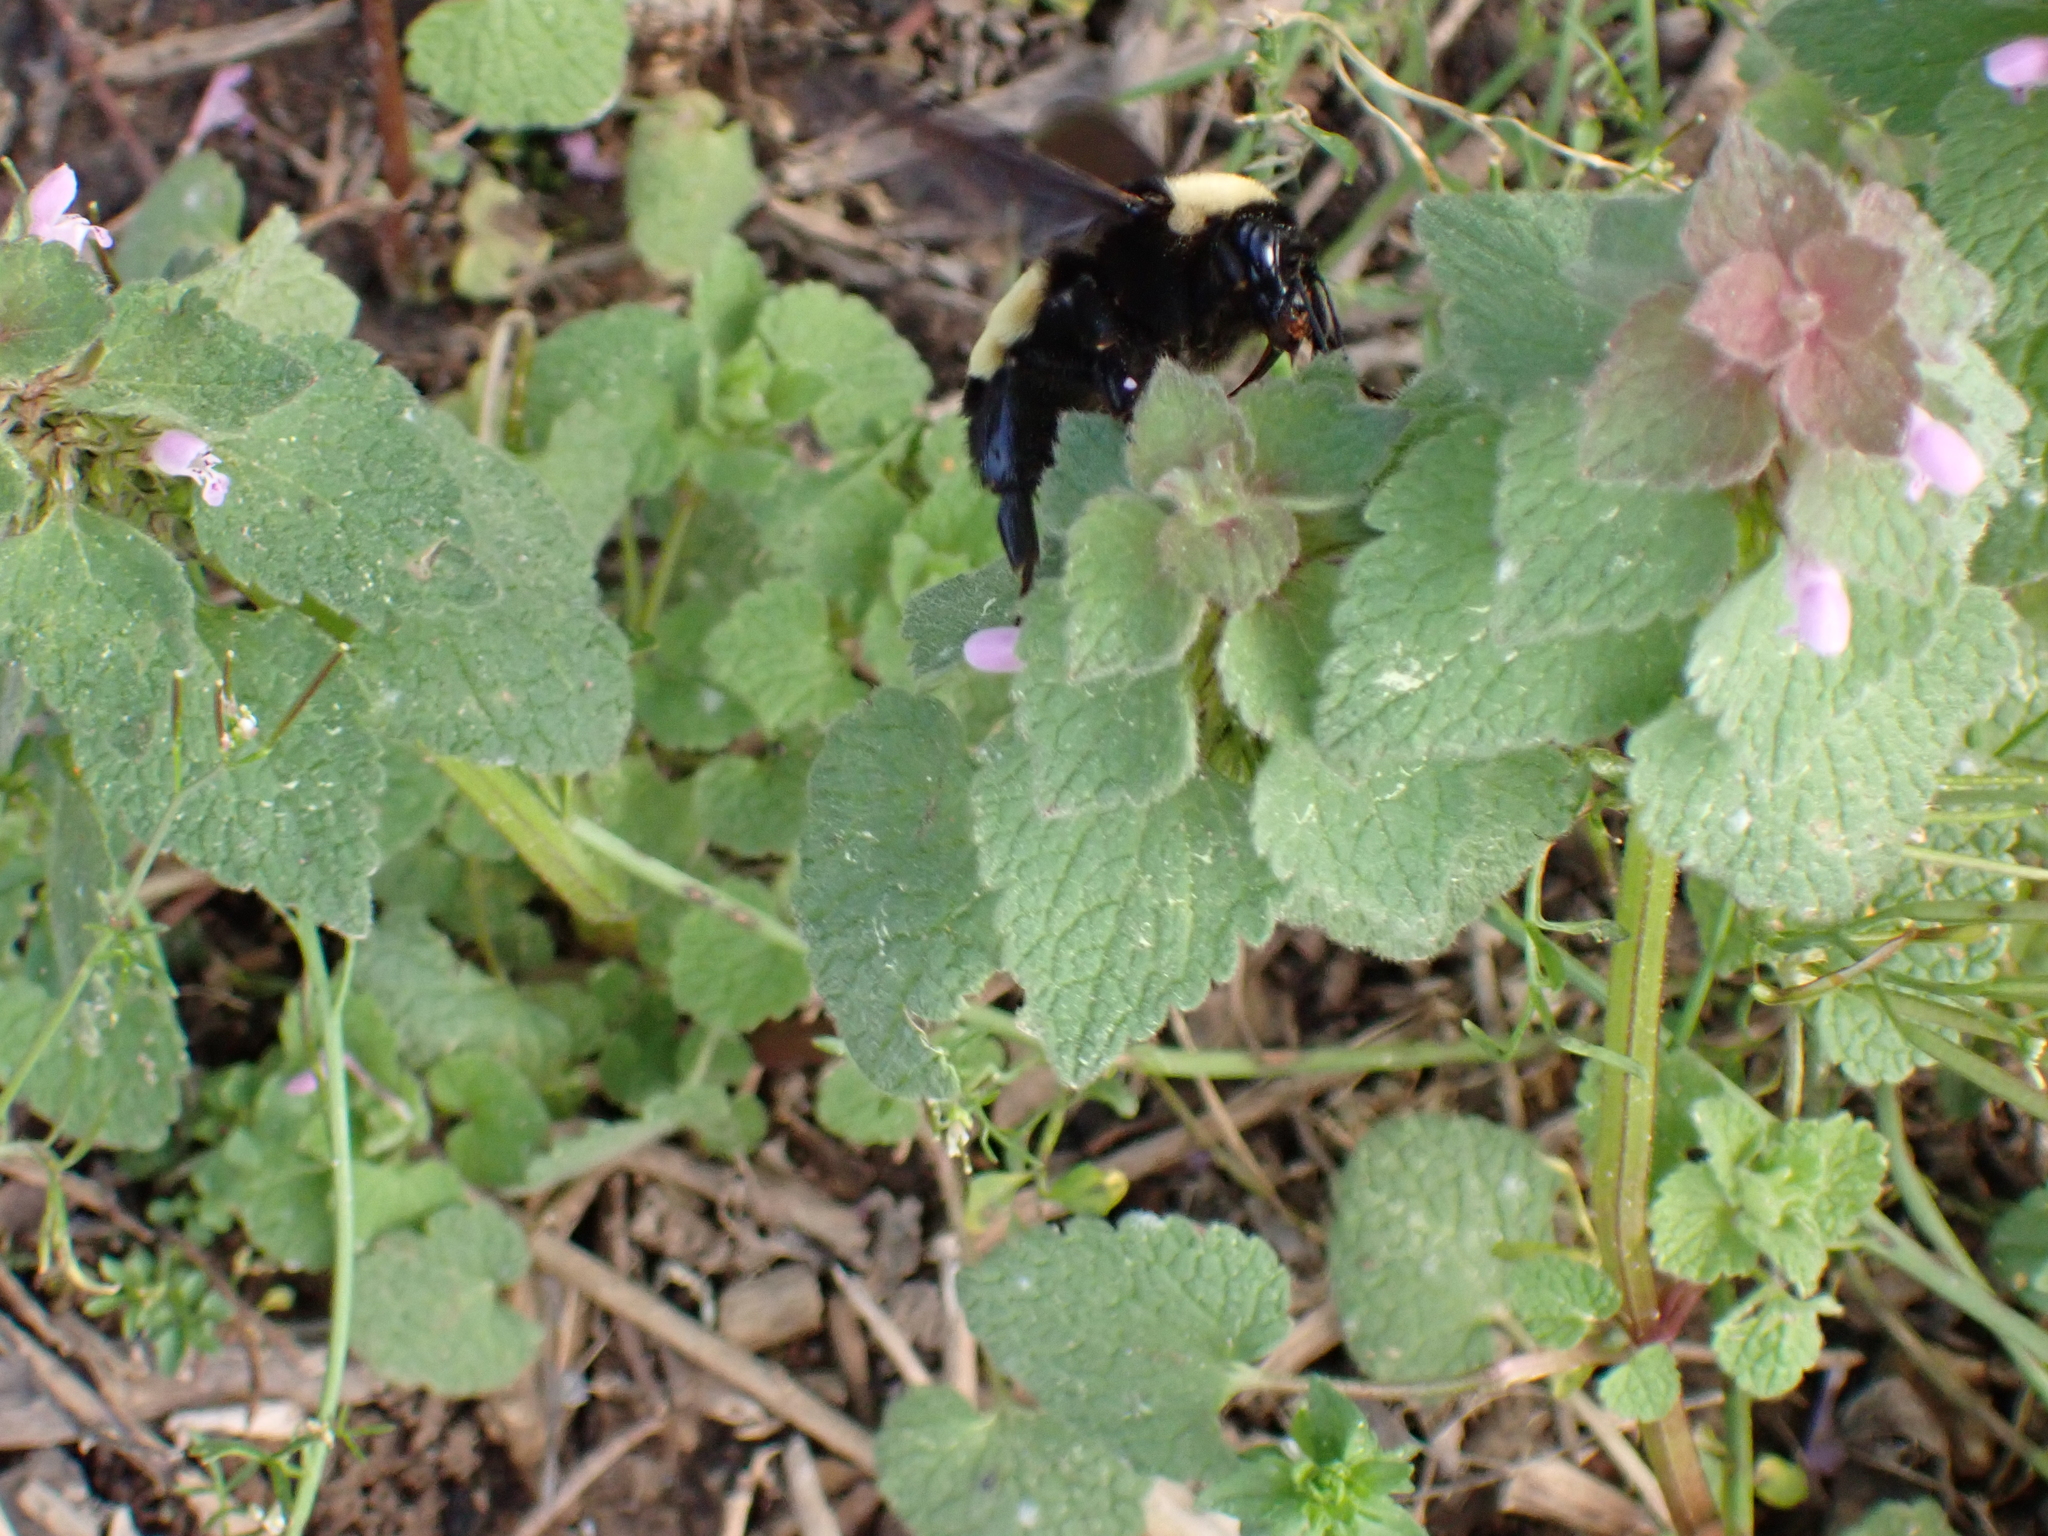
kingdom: Animalia
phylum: Arthropoda
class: Insecta
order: Hymenoptera
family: Apidae
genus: Bombus
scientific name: Bombus pensylvanicus
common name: Bumble bee
